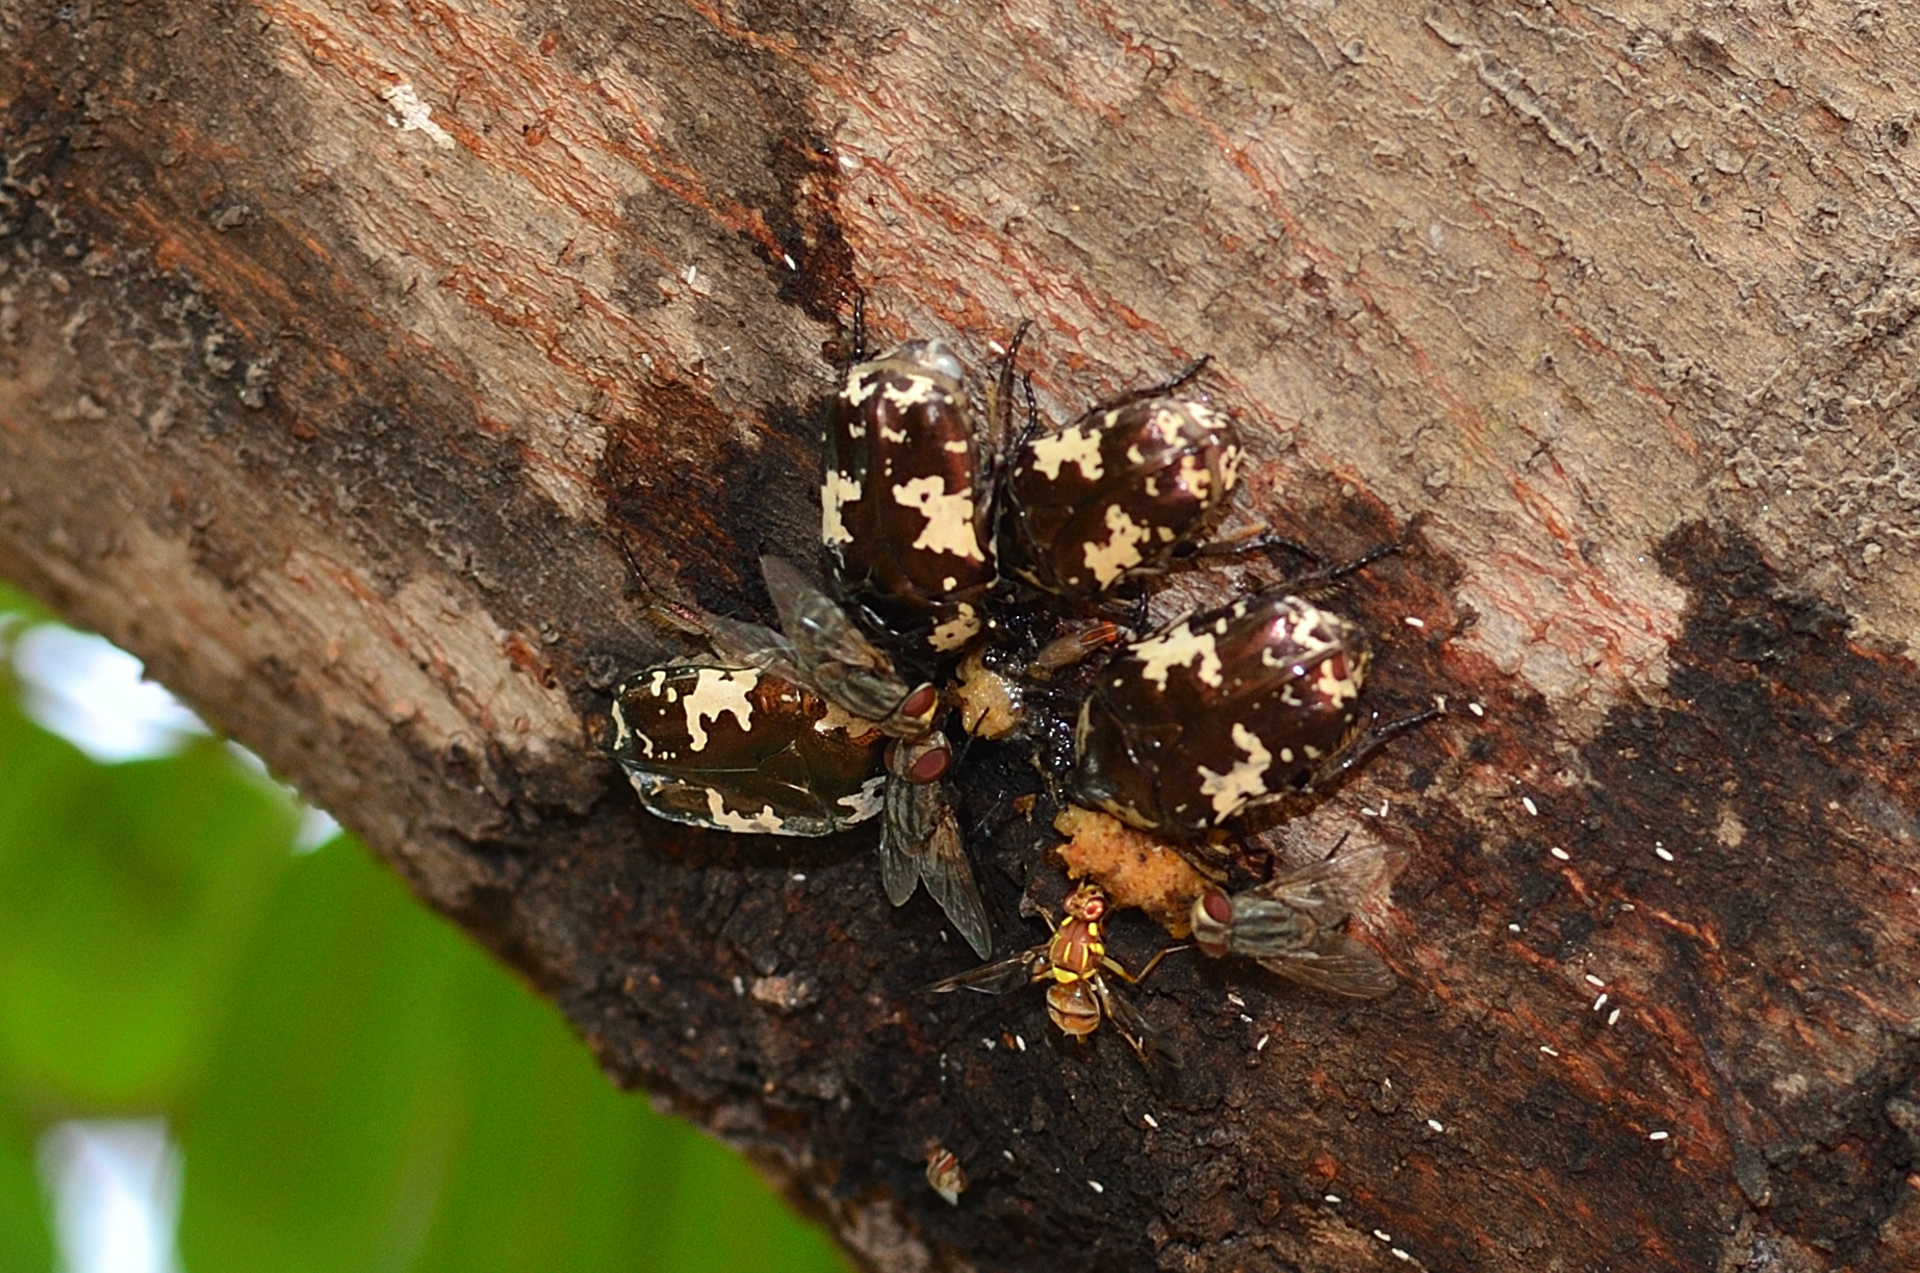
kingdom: Animalia
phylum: Arthropoda
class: Insecta
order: Coleoptera
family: Scarabaeidae
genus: Protaetia
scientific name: Protaetia aurichalcea
